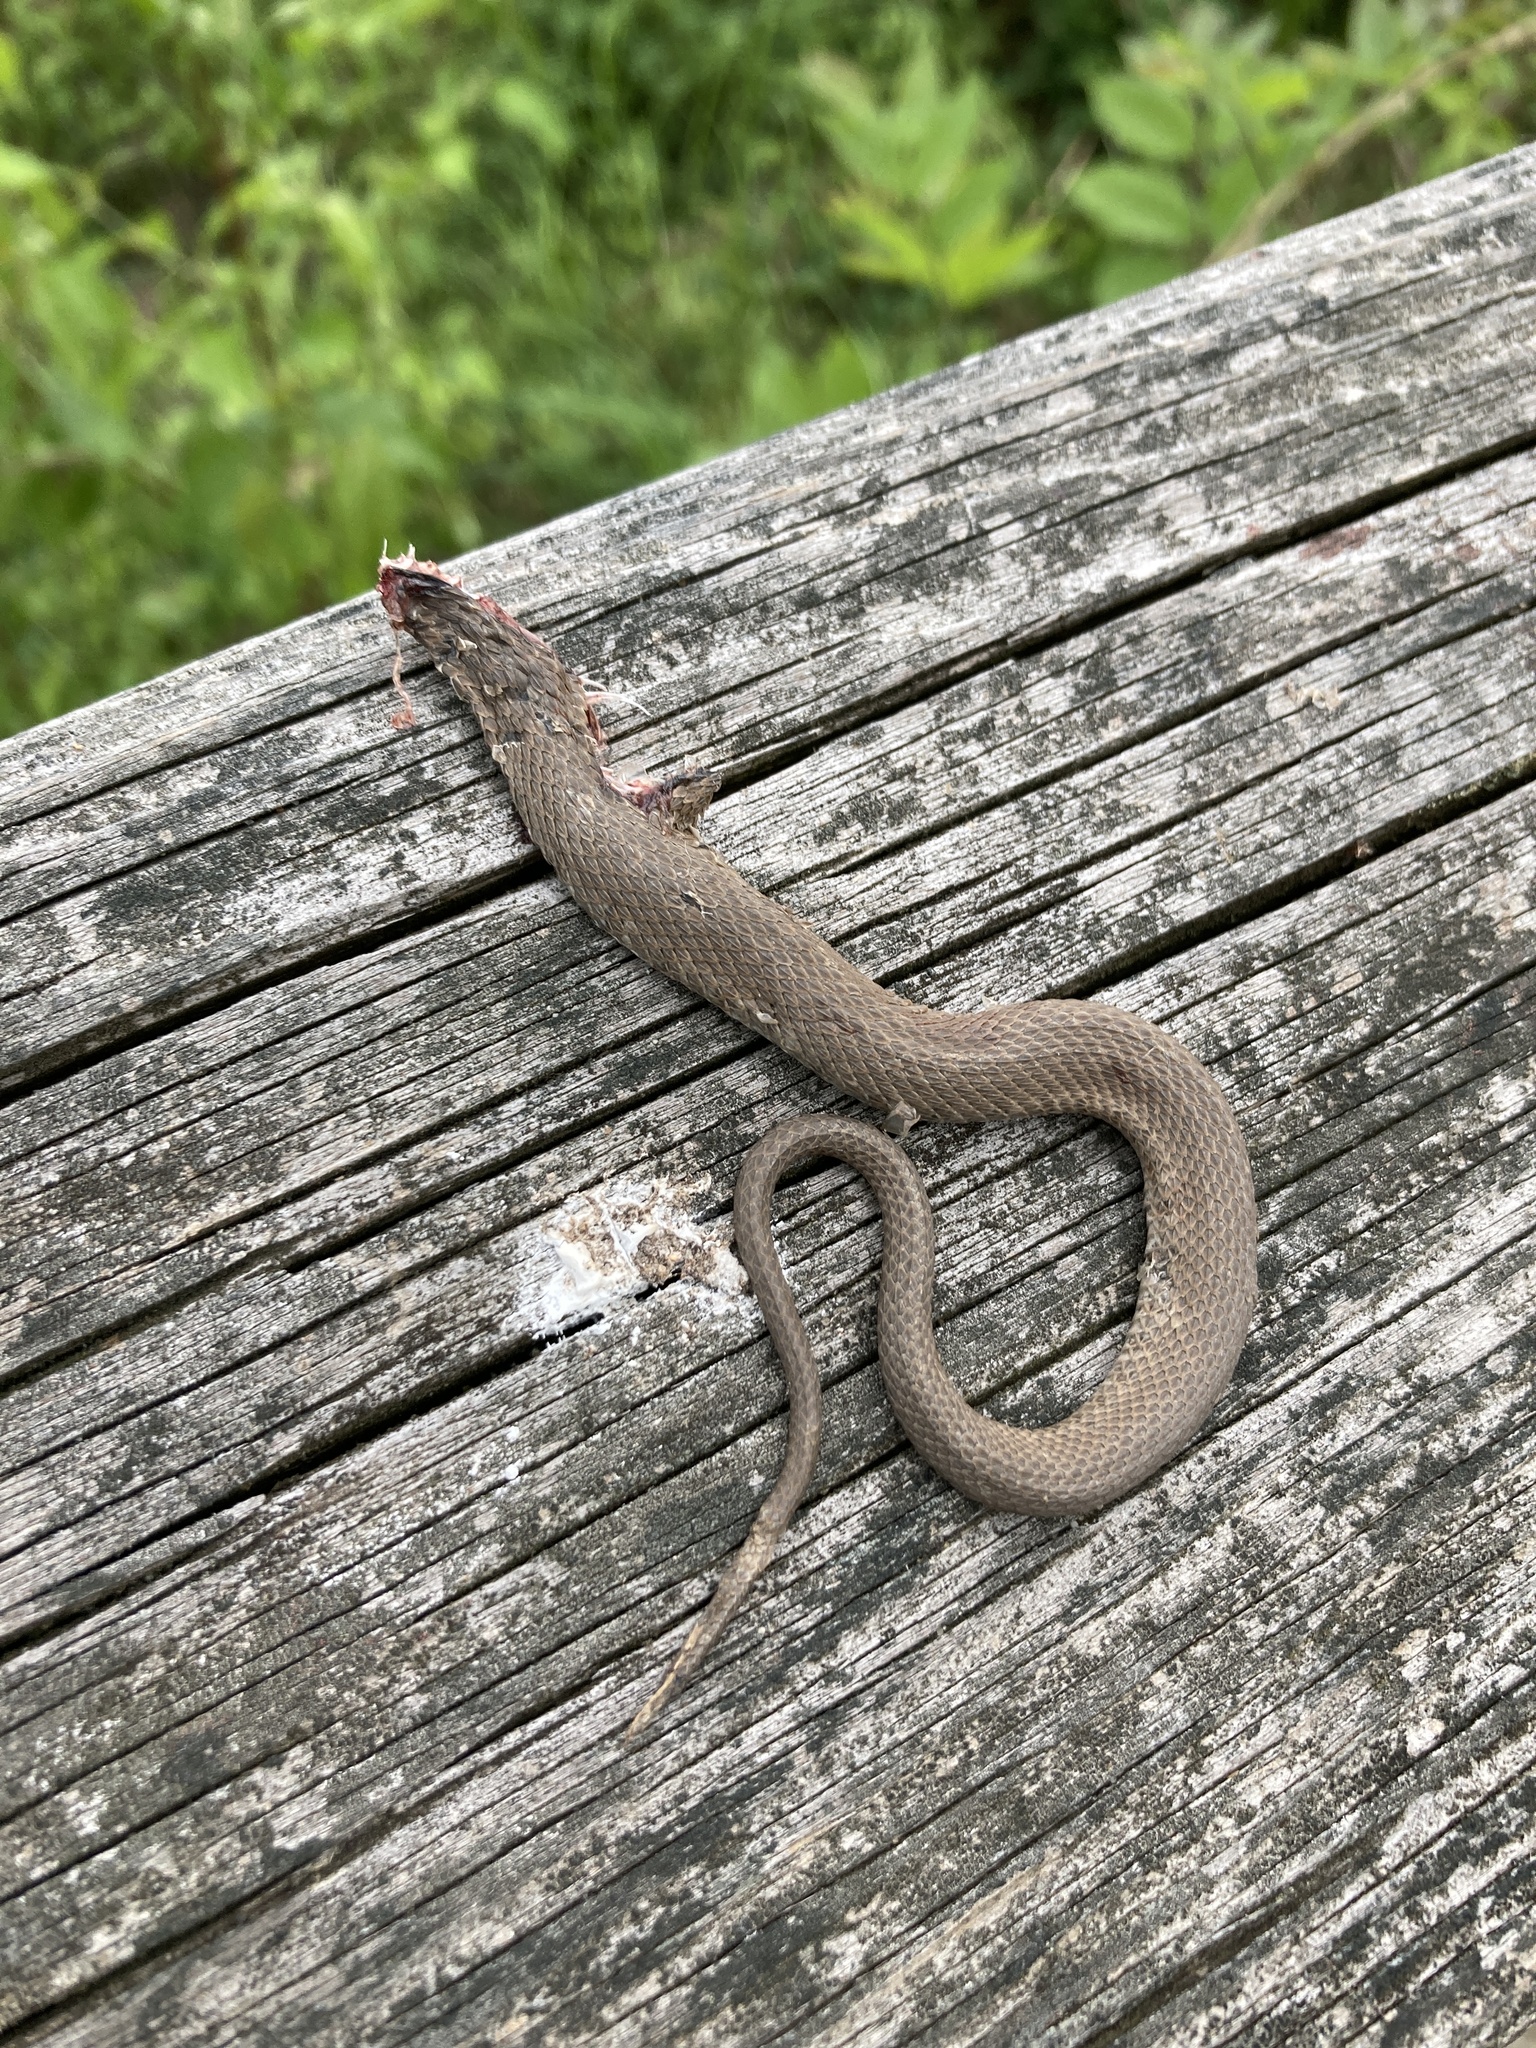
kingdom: Animalia
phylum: Chordata
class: Squamata
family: Colubridae
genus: Nerodia
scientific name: Nerodia sipedon
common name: Northern water snake
